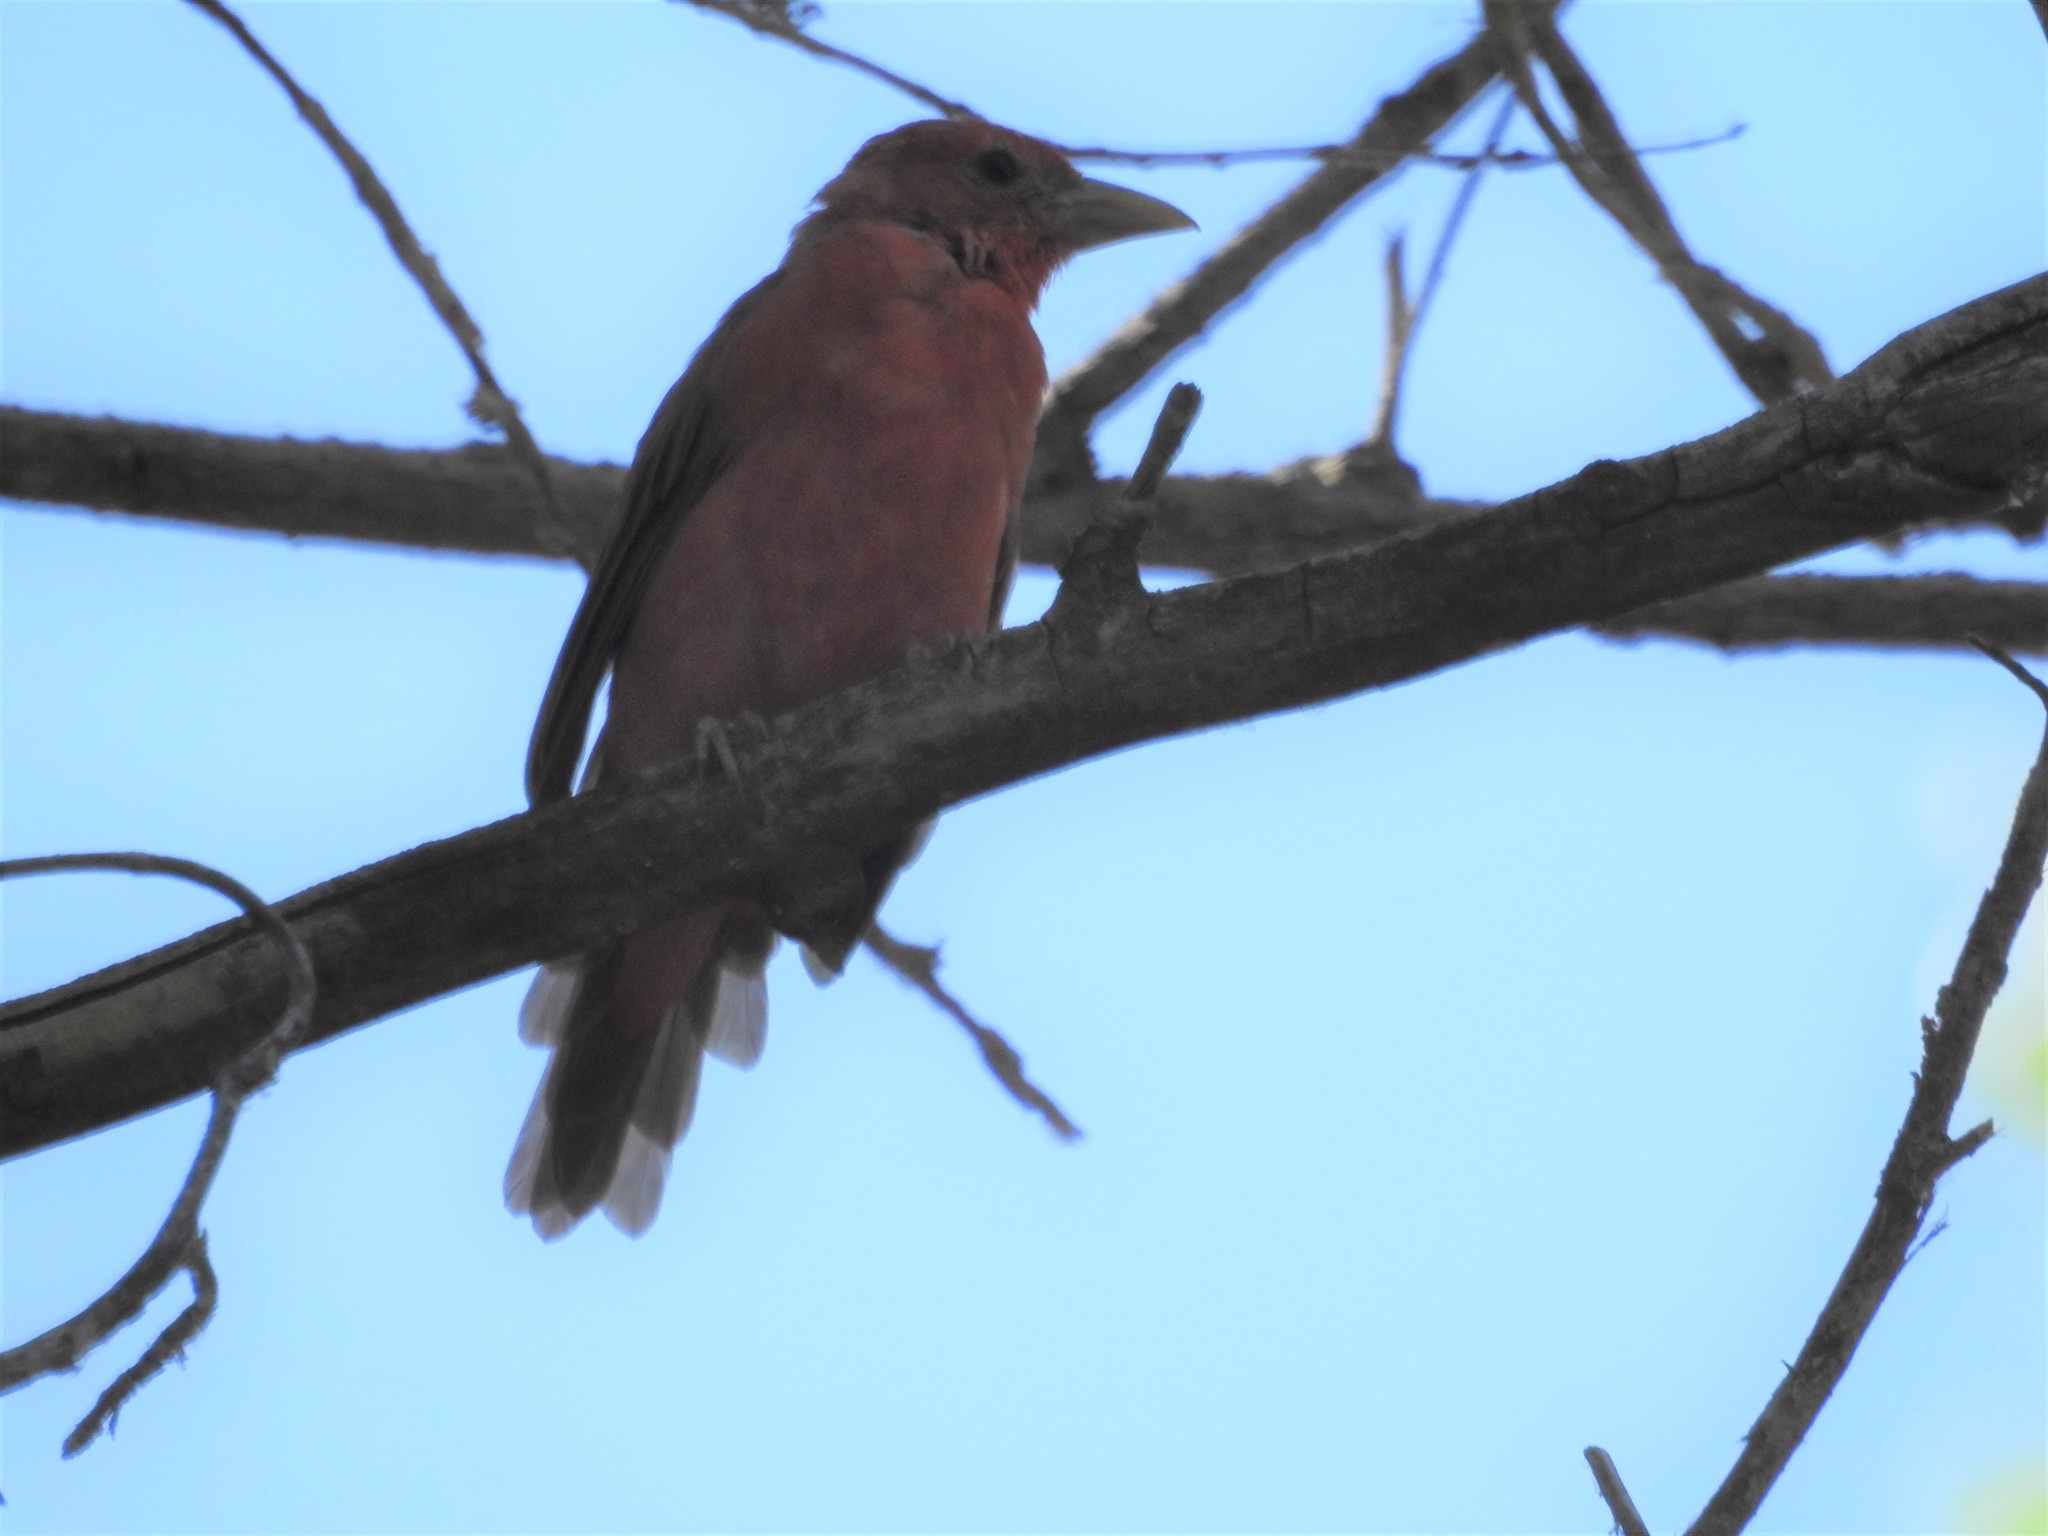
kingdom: Animalia
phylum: Chordata
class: Aves
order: Passeriformes
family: Cardinalidae
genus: Piranga
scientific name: Piranga rubra
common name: Summer tanager
